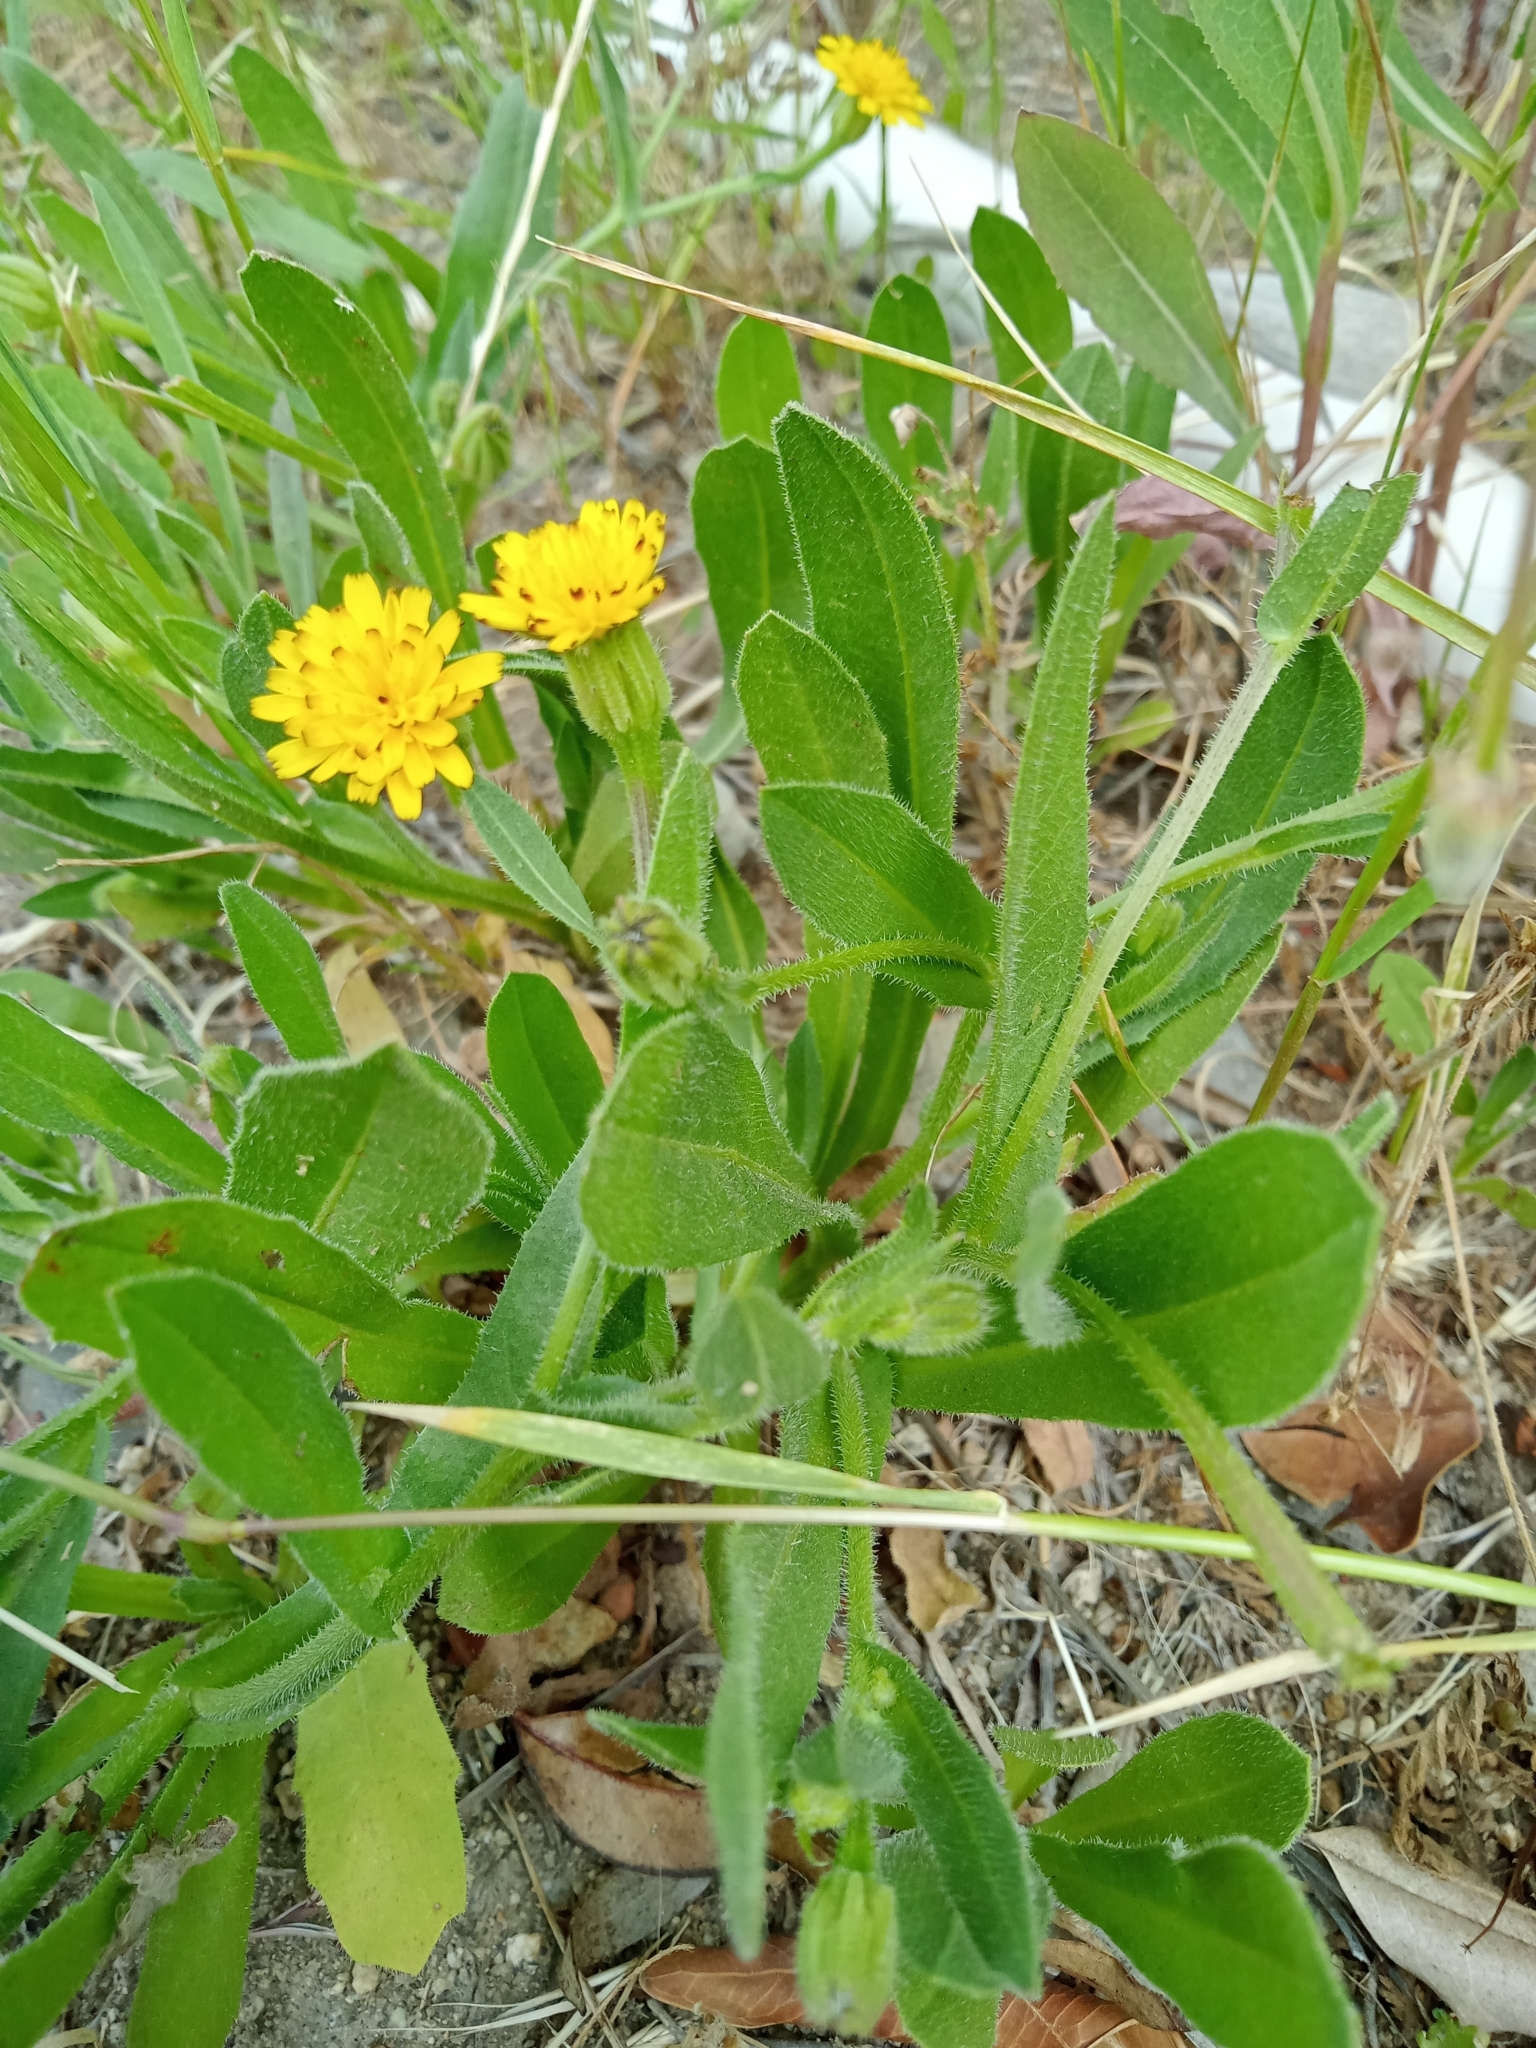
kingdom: Plantae
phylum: Tracheophyta
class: Magnoliopsida
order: Asterales
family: Asteraceae
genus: Hedypnois
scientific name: Hedypnois rhagadioloides
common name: Cretan weed
